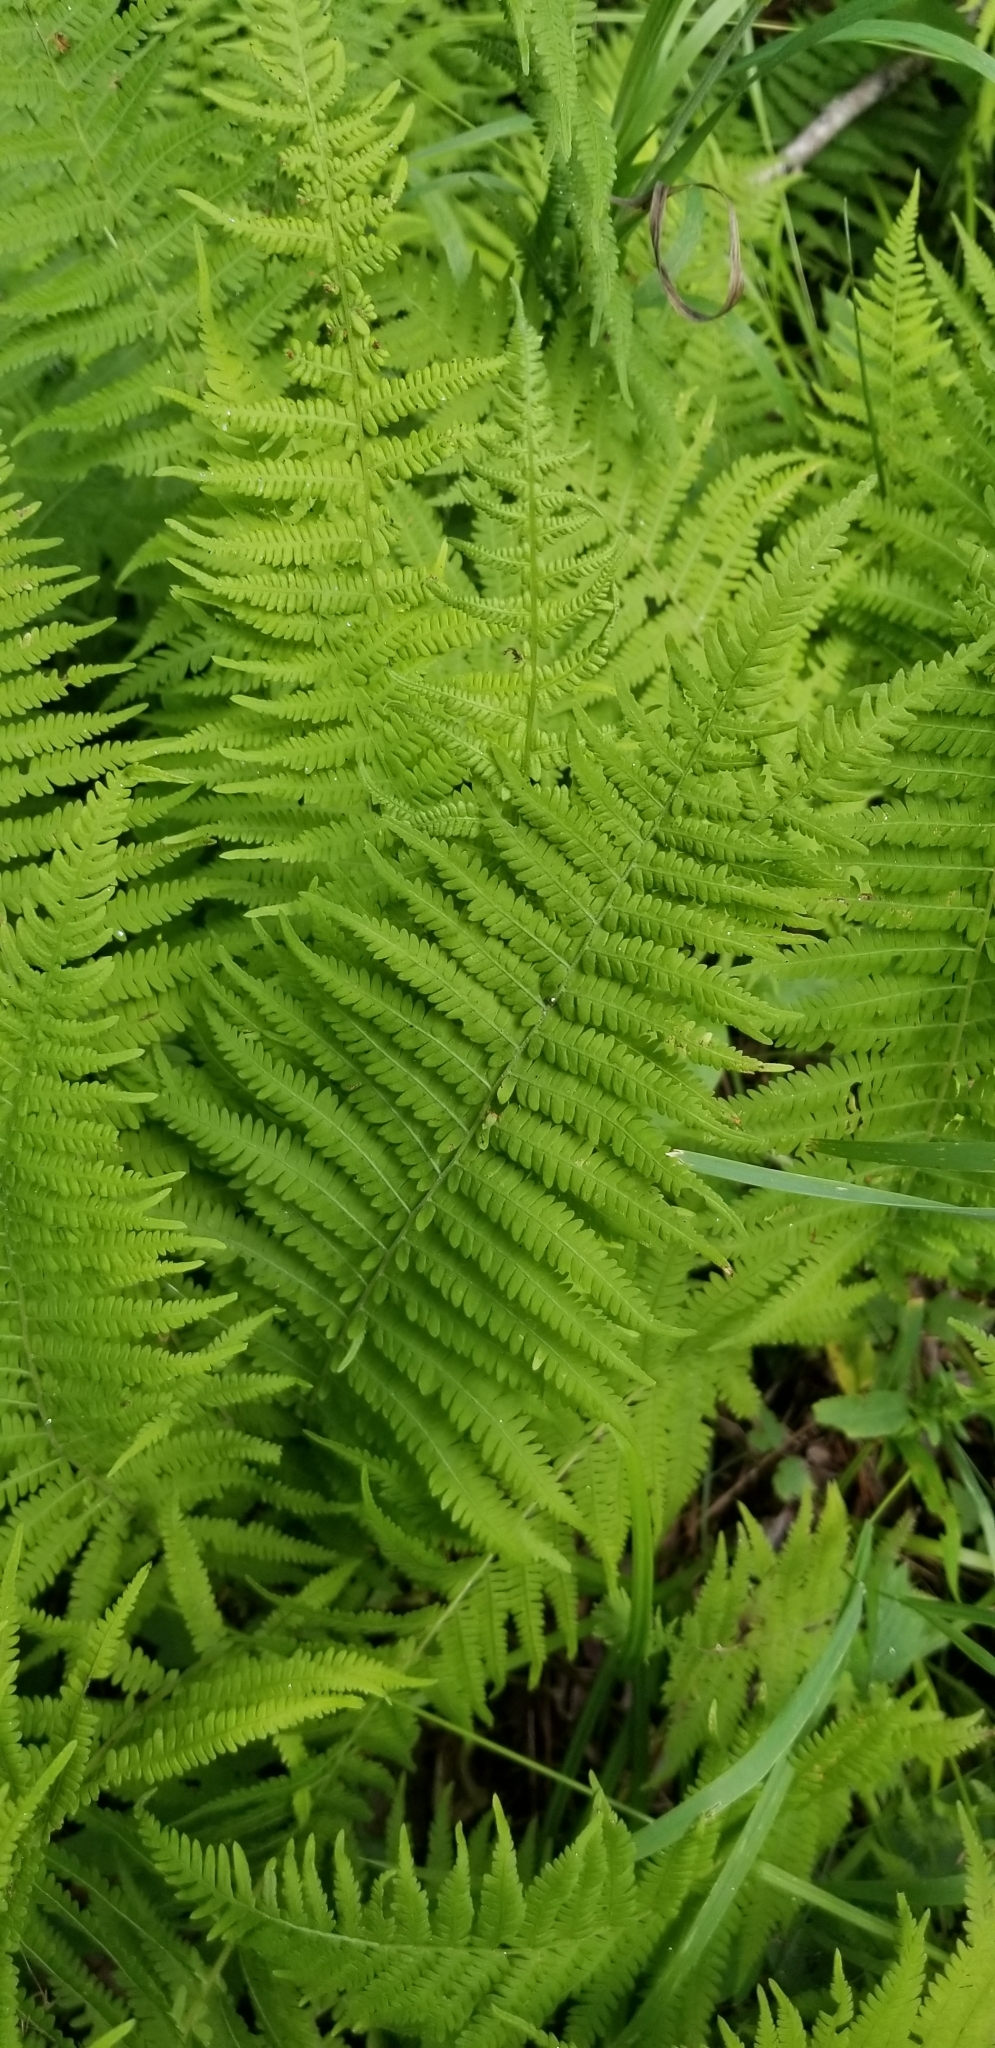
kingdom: Plantae
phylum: Tracheophyta
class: Polypodiopsida
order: Polypodiales
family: Thelypteridaceae
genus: Amauropelta
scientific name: Amauropelta noveboracensis
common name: New york fern
